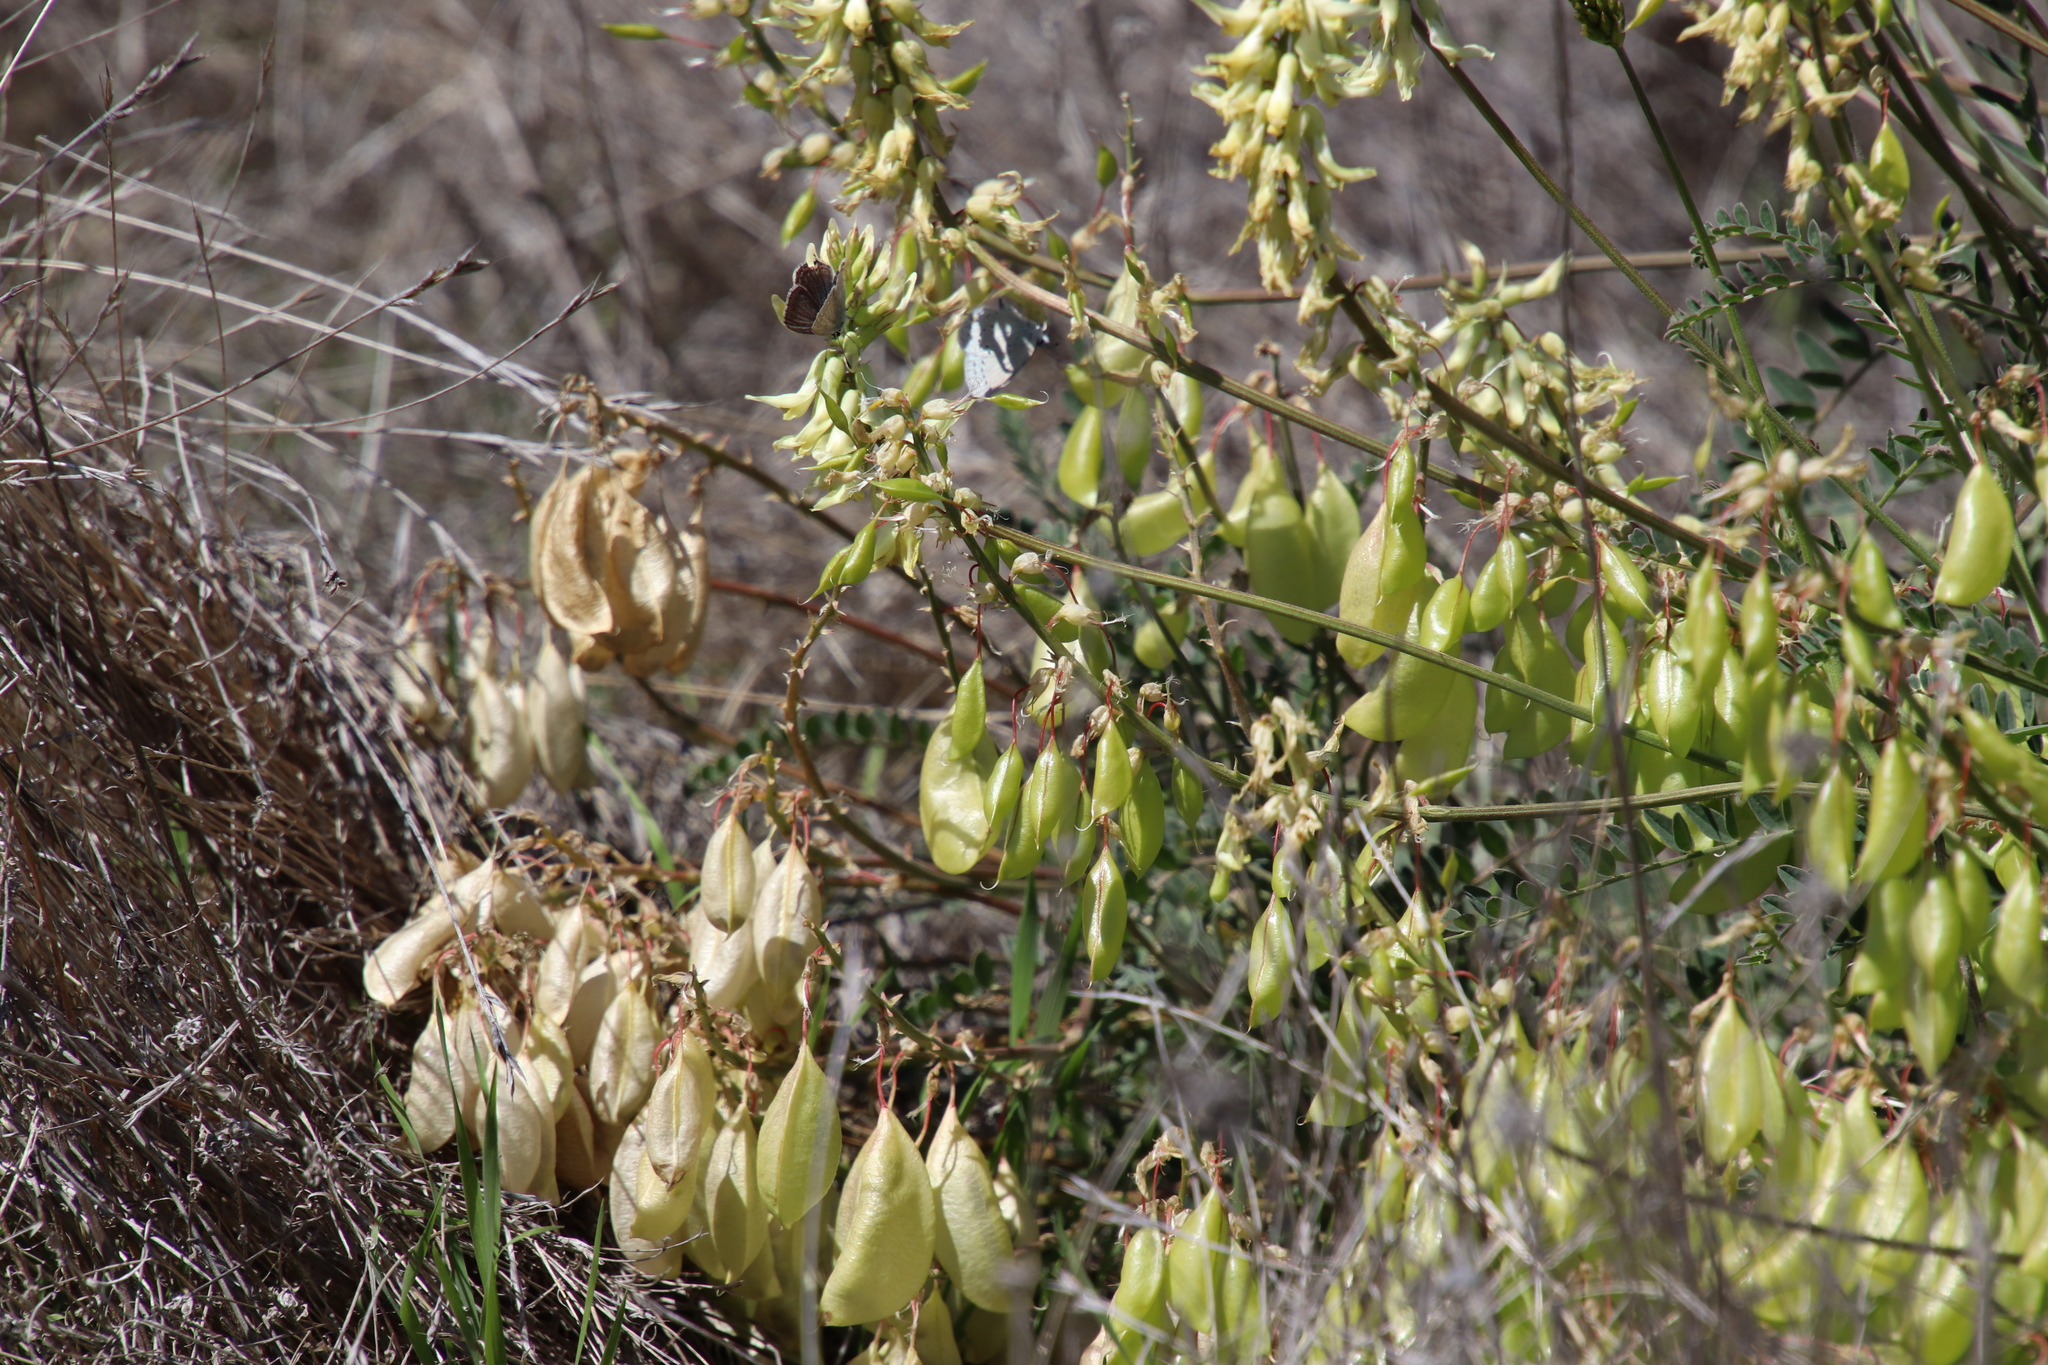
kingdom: Plantae
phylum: Tracheophyta
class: Magnoliopsida
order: Fabales
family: Fabaceae
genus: Astragalus
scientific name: Astragalus trichopodus
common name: Santa barbara milk-vetch
